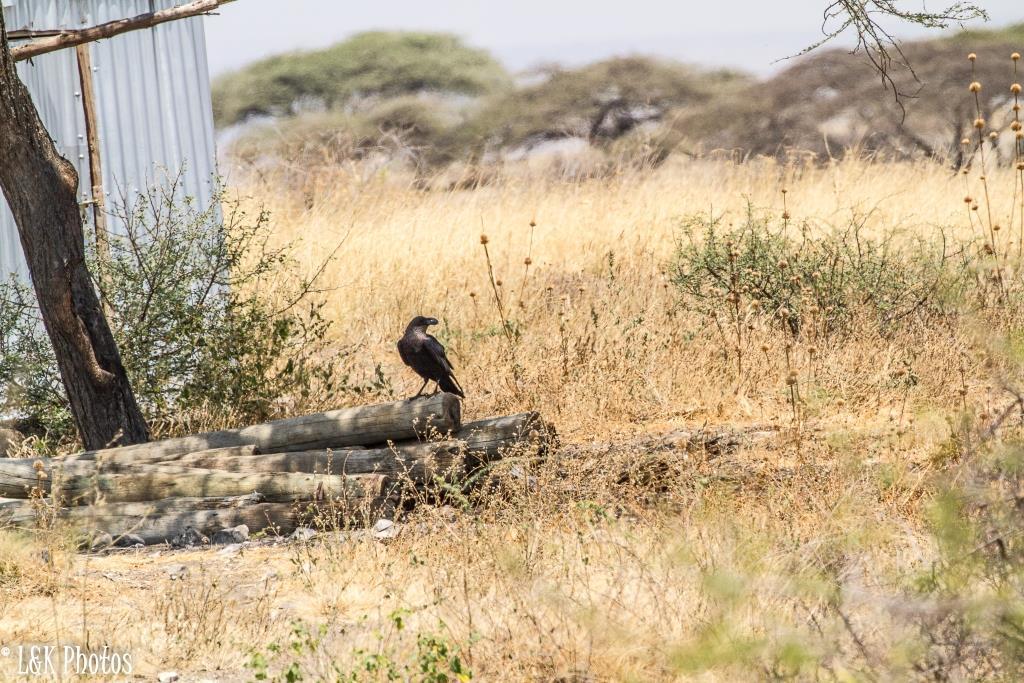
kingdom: Animalia
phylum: Chordata
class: Aves
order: Passeriformes
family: Corvidae
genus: Corvus
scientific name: Corvus albicollis
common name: White-necked raven
